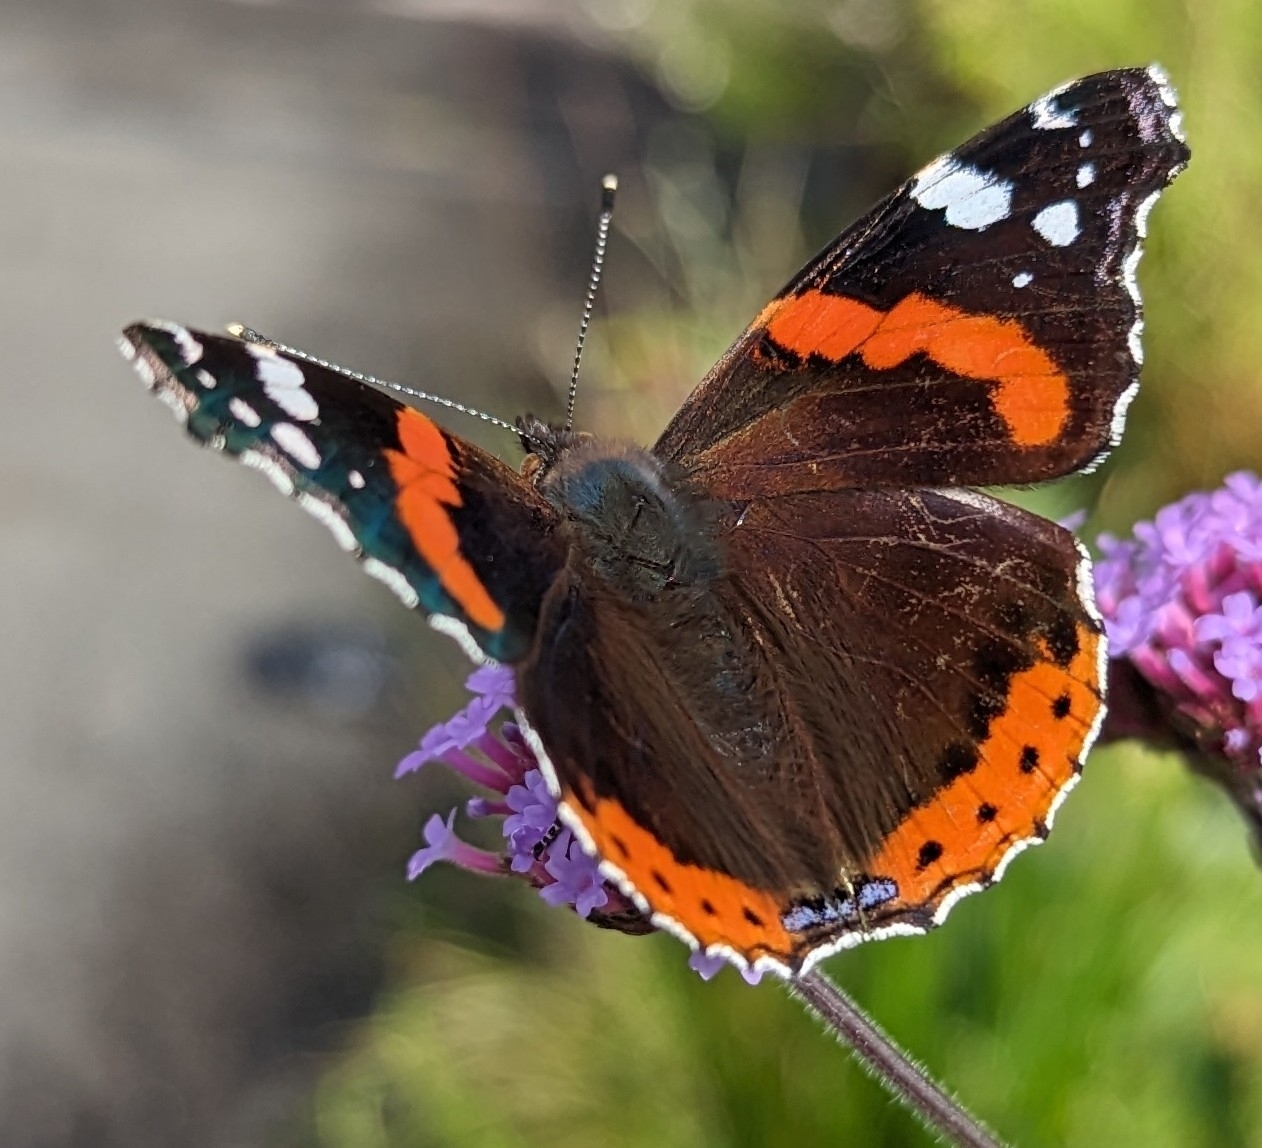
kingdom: Animalia
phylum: Arthropoda
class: Insecta
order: Lepidoptera
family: Nymphalidae
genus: Vanessa
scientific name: Vanessa atalanta
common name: Red admiral
